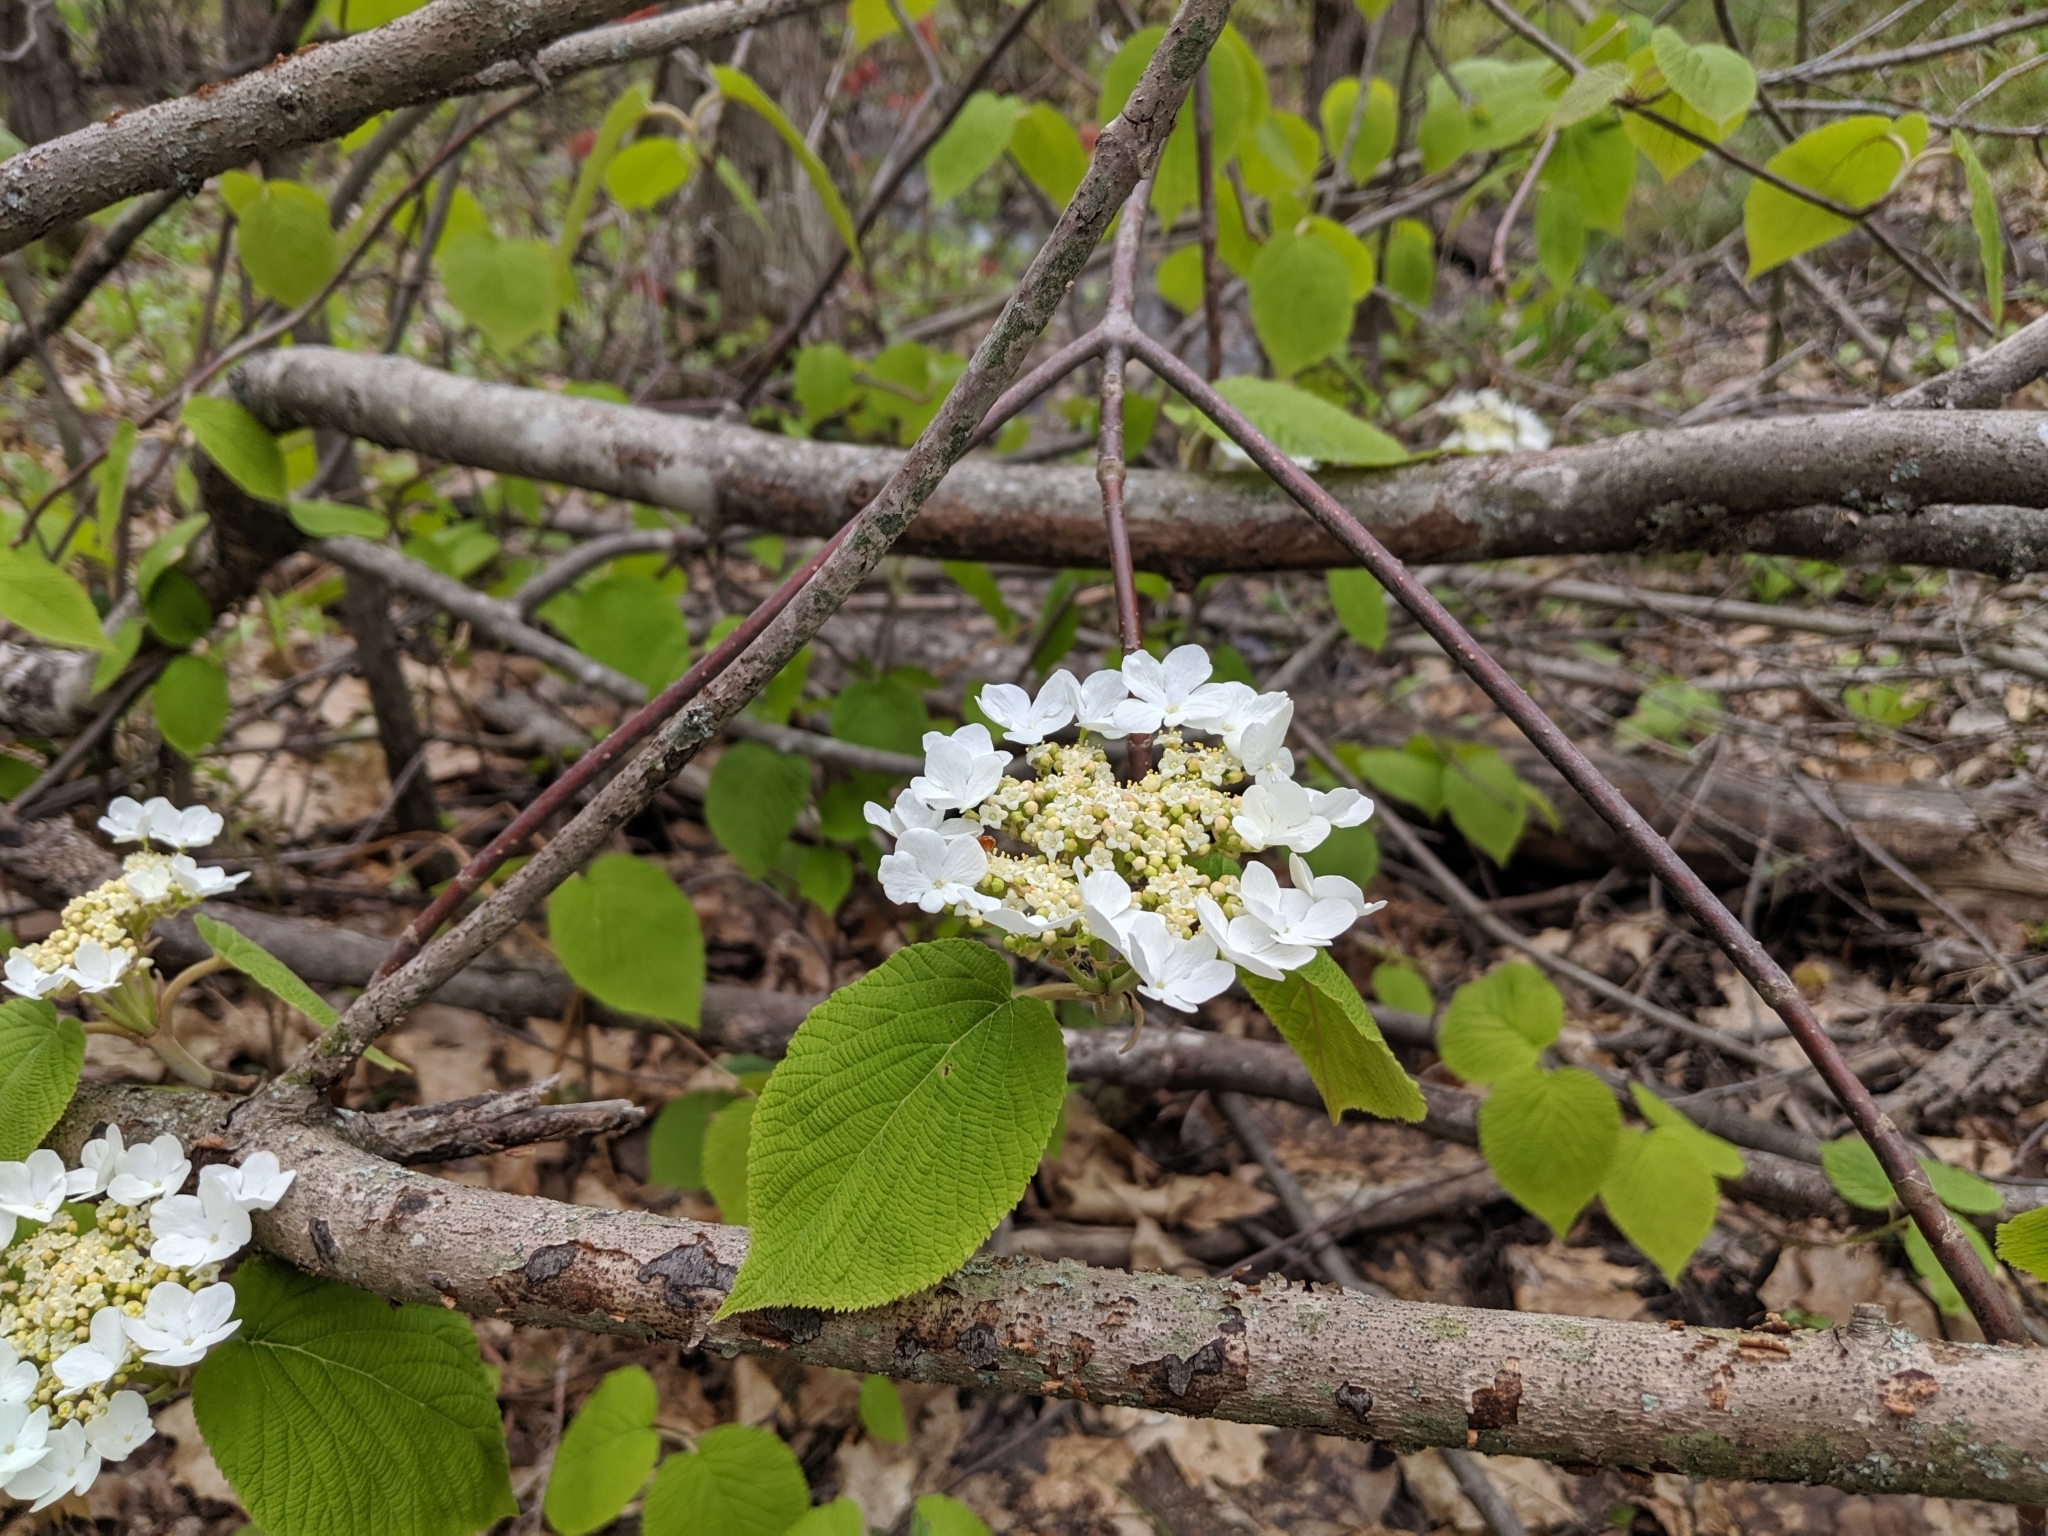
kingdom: Plantae
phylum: Tracheophyta
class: Magnoliopsida
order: Dipsacales
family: Viburnaceae
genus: Viburnum
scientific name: Viburnum lantanoides
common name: Hobblebush
